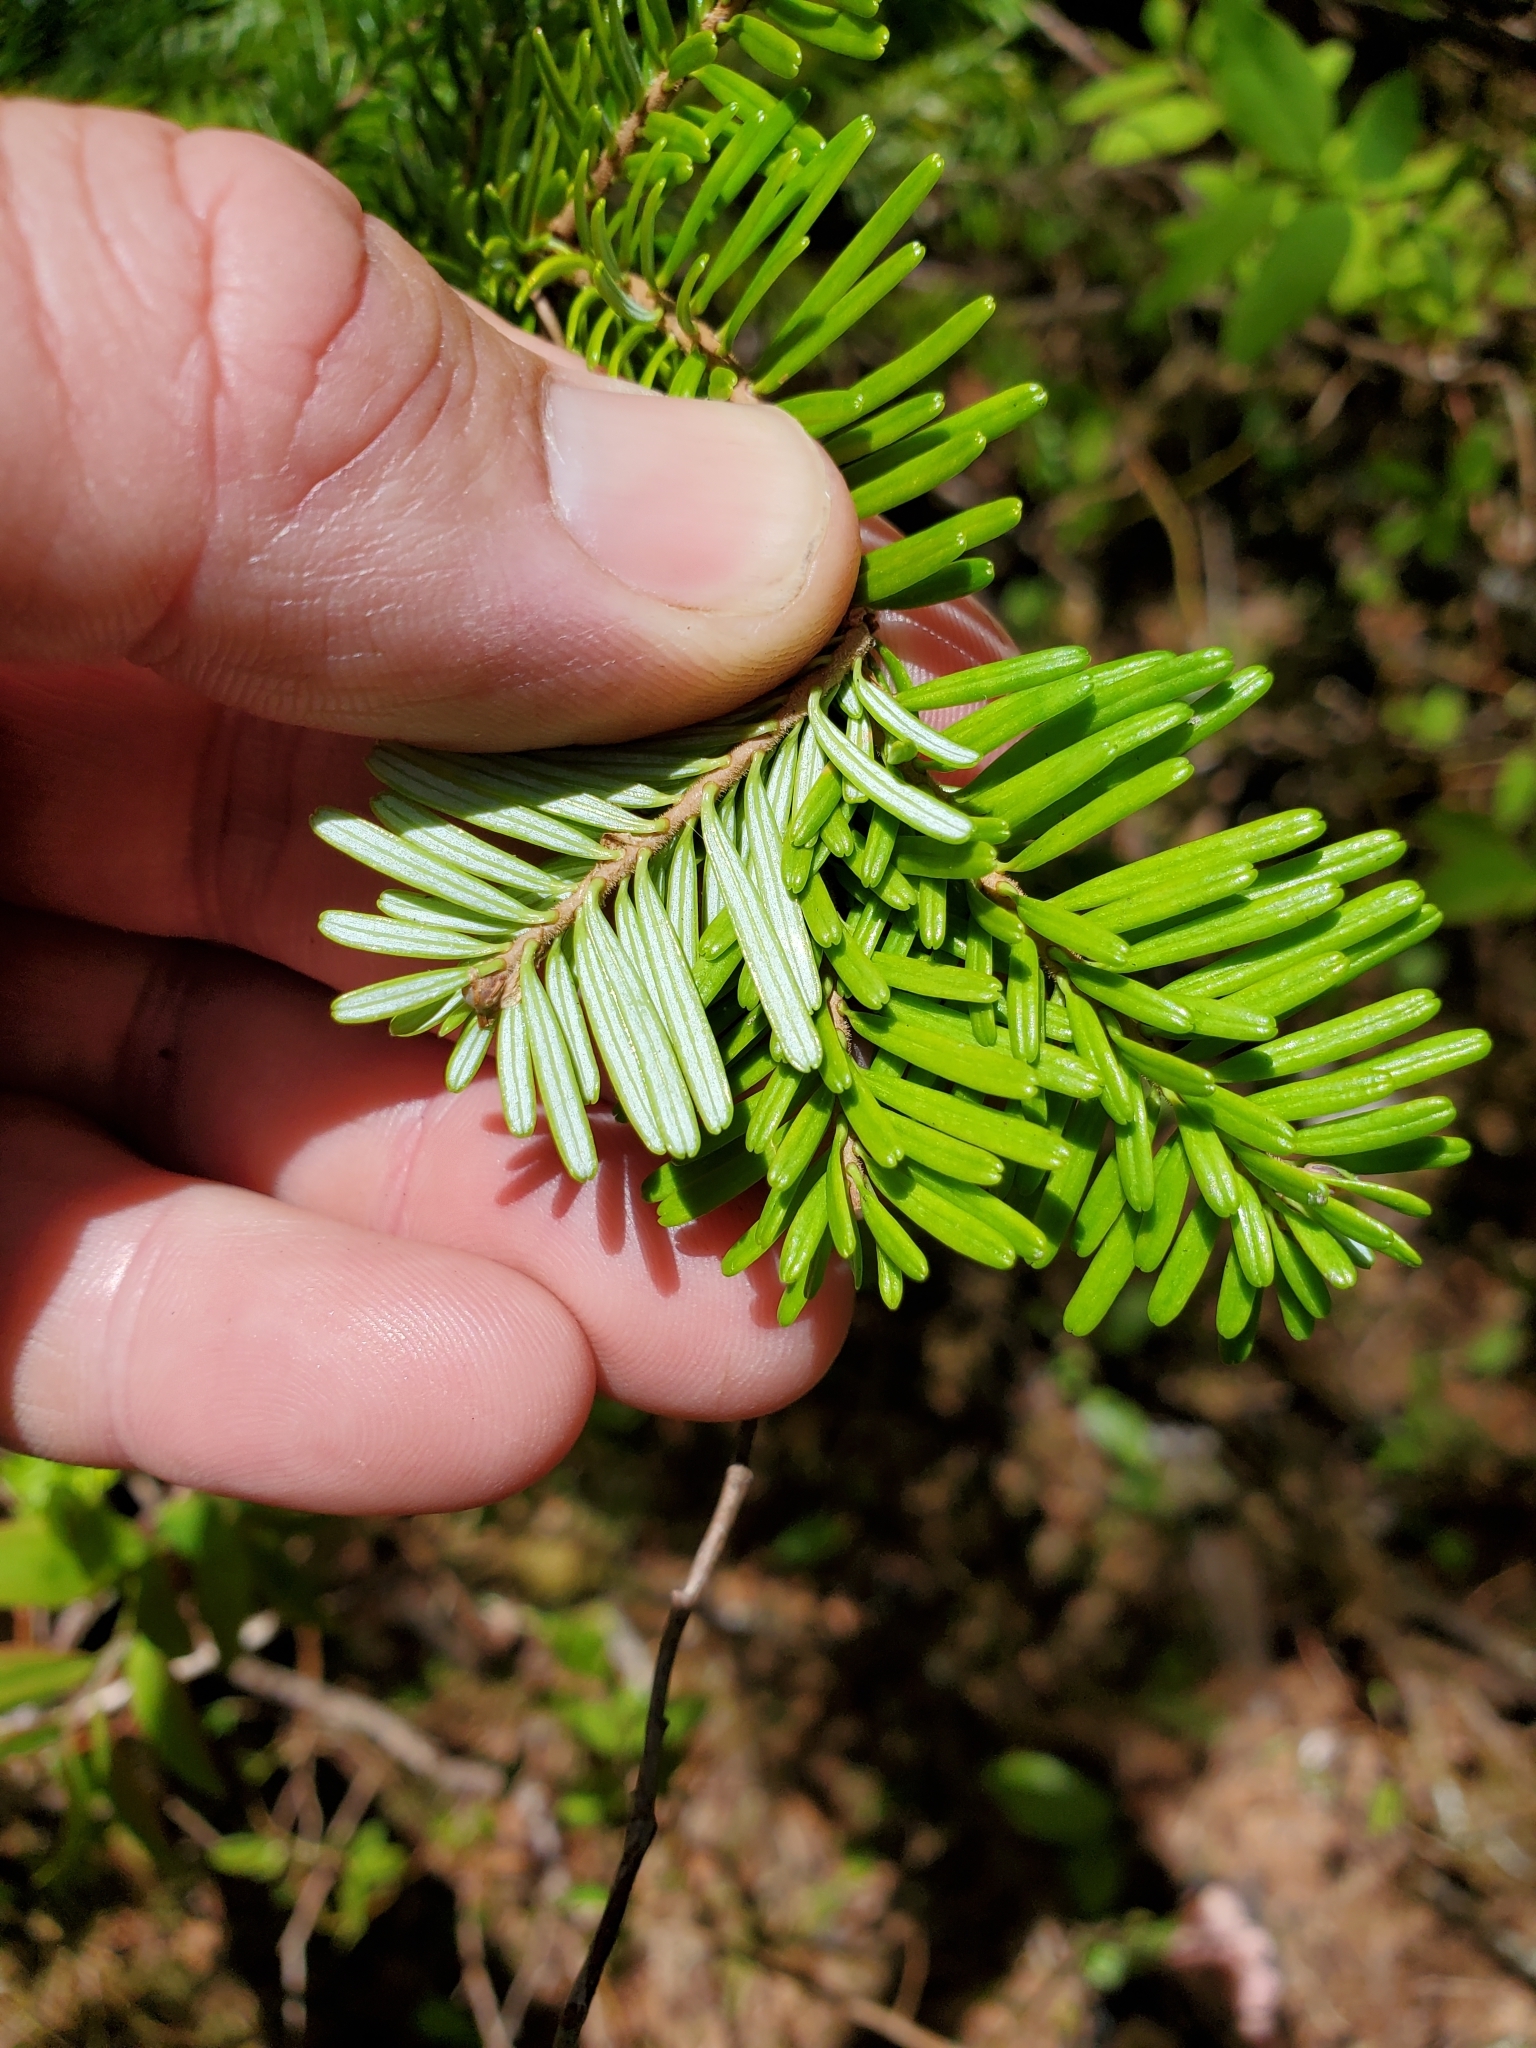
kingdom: Plantae
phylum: Tracheophyta
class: Pinopsida
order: Pinales
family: Pinaceae
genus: Abies
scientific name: Abies amabilis
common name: Pacific silver fir
